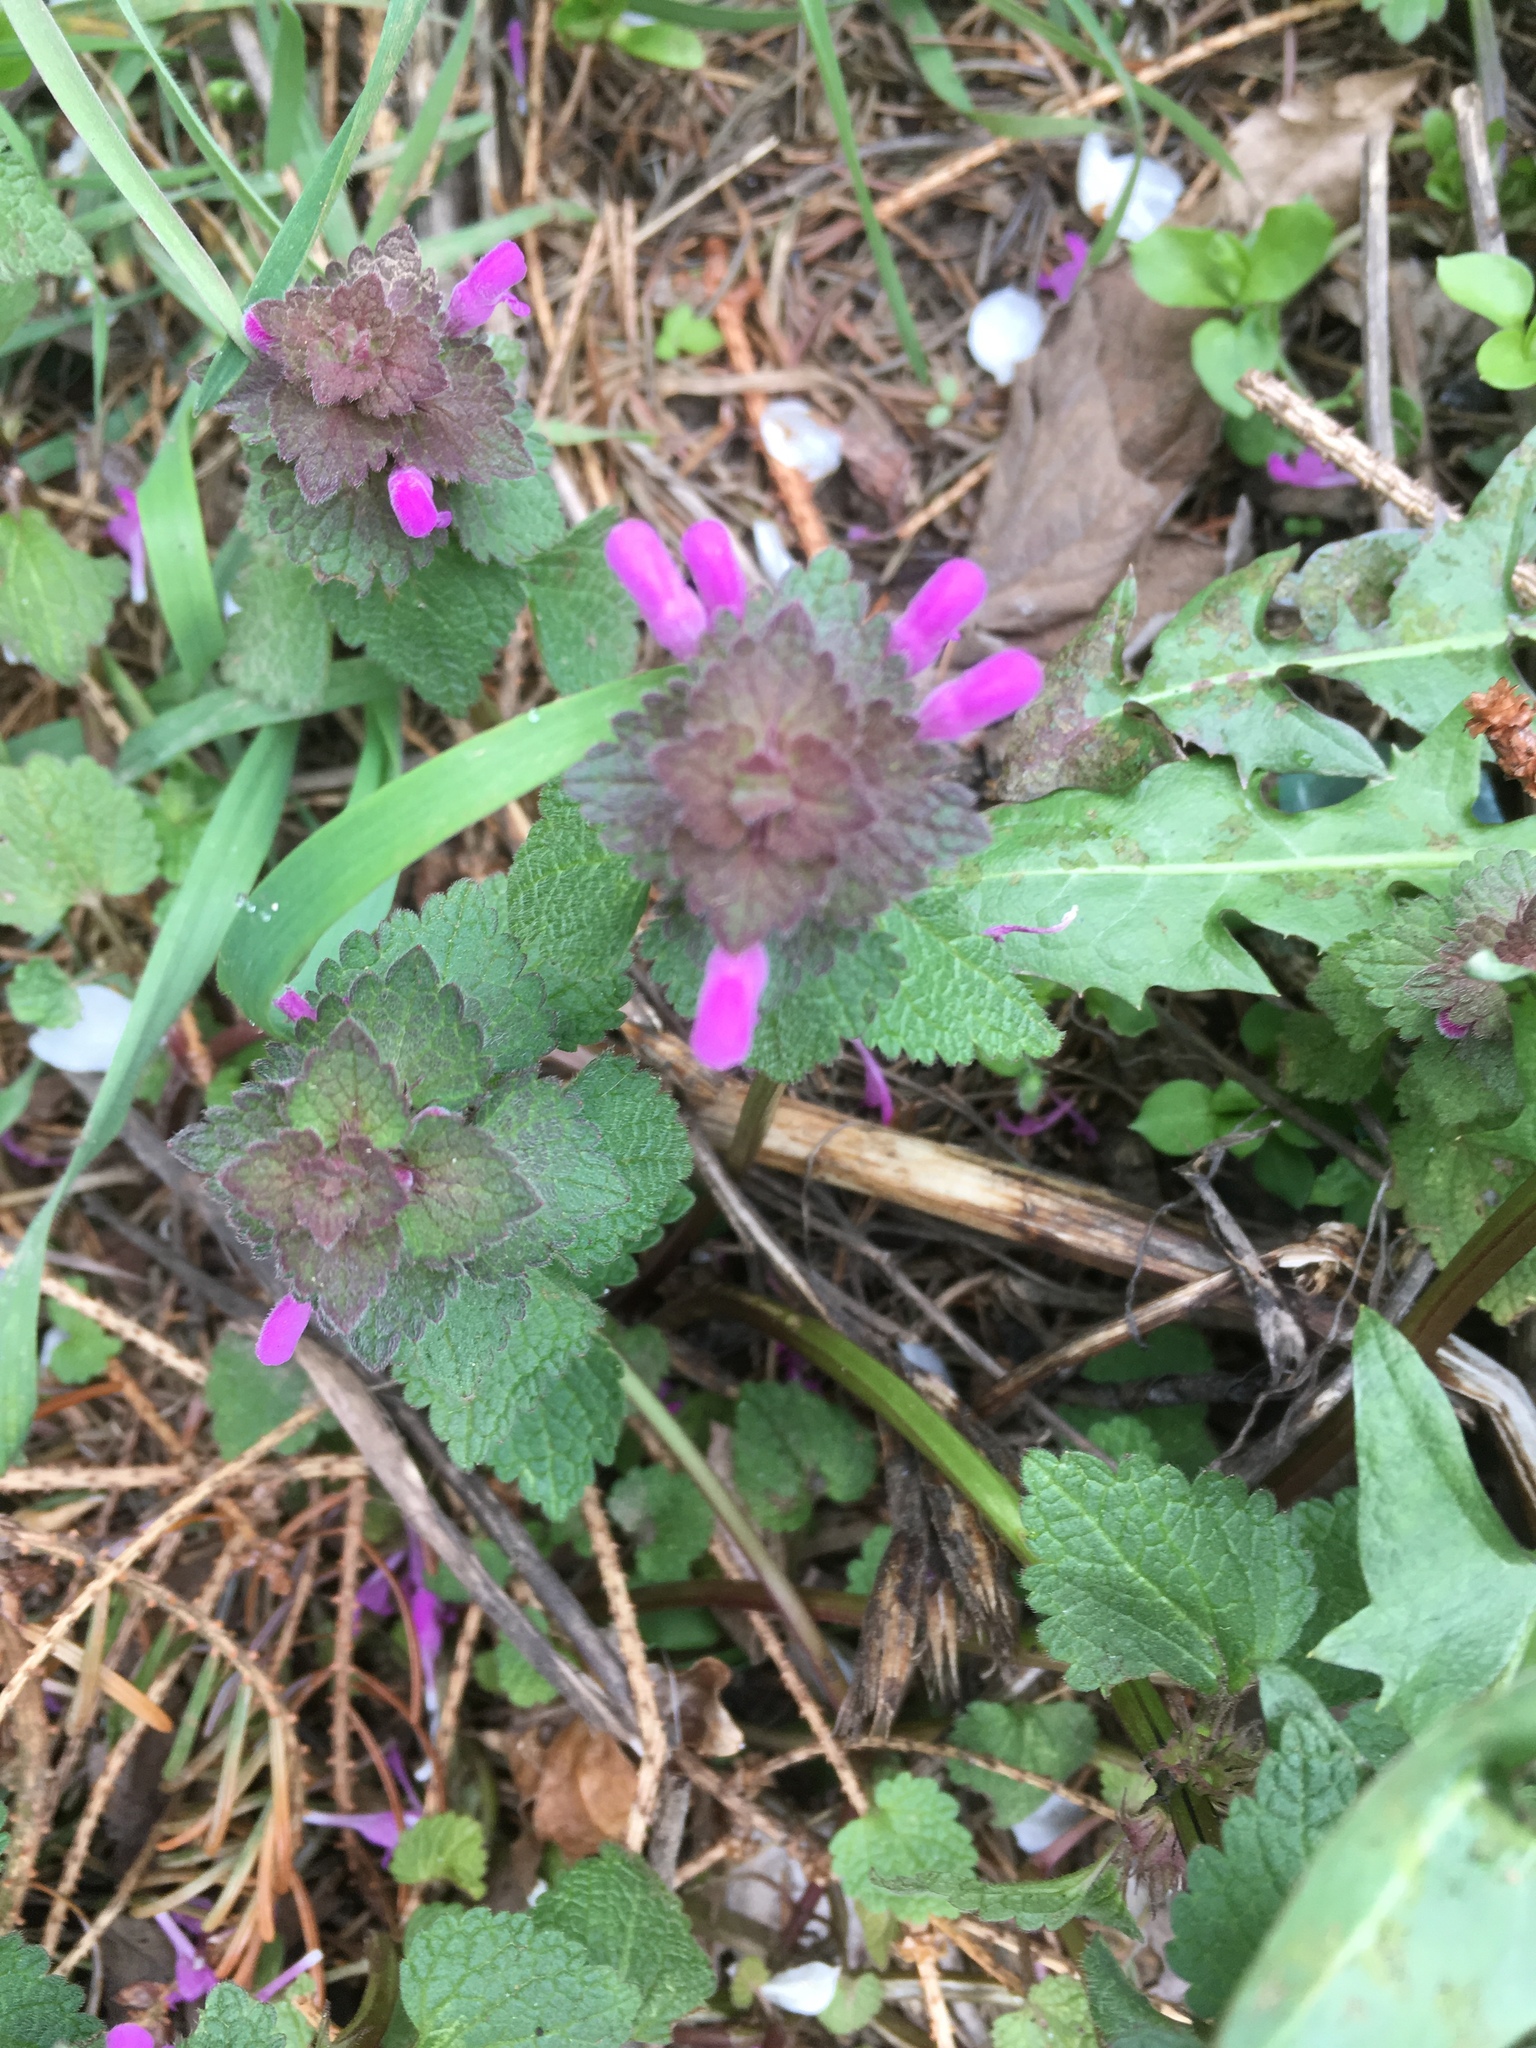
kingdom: Plantae
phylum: Tracheophyta
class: Magnoliopsida
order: Lamiales
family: Lamiaceae
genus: Lamium
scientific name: Lamium purpureum
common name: Red dead-nettle
